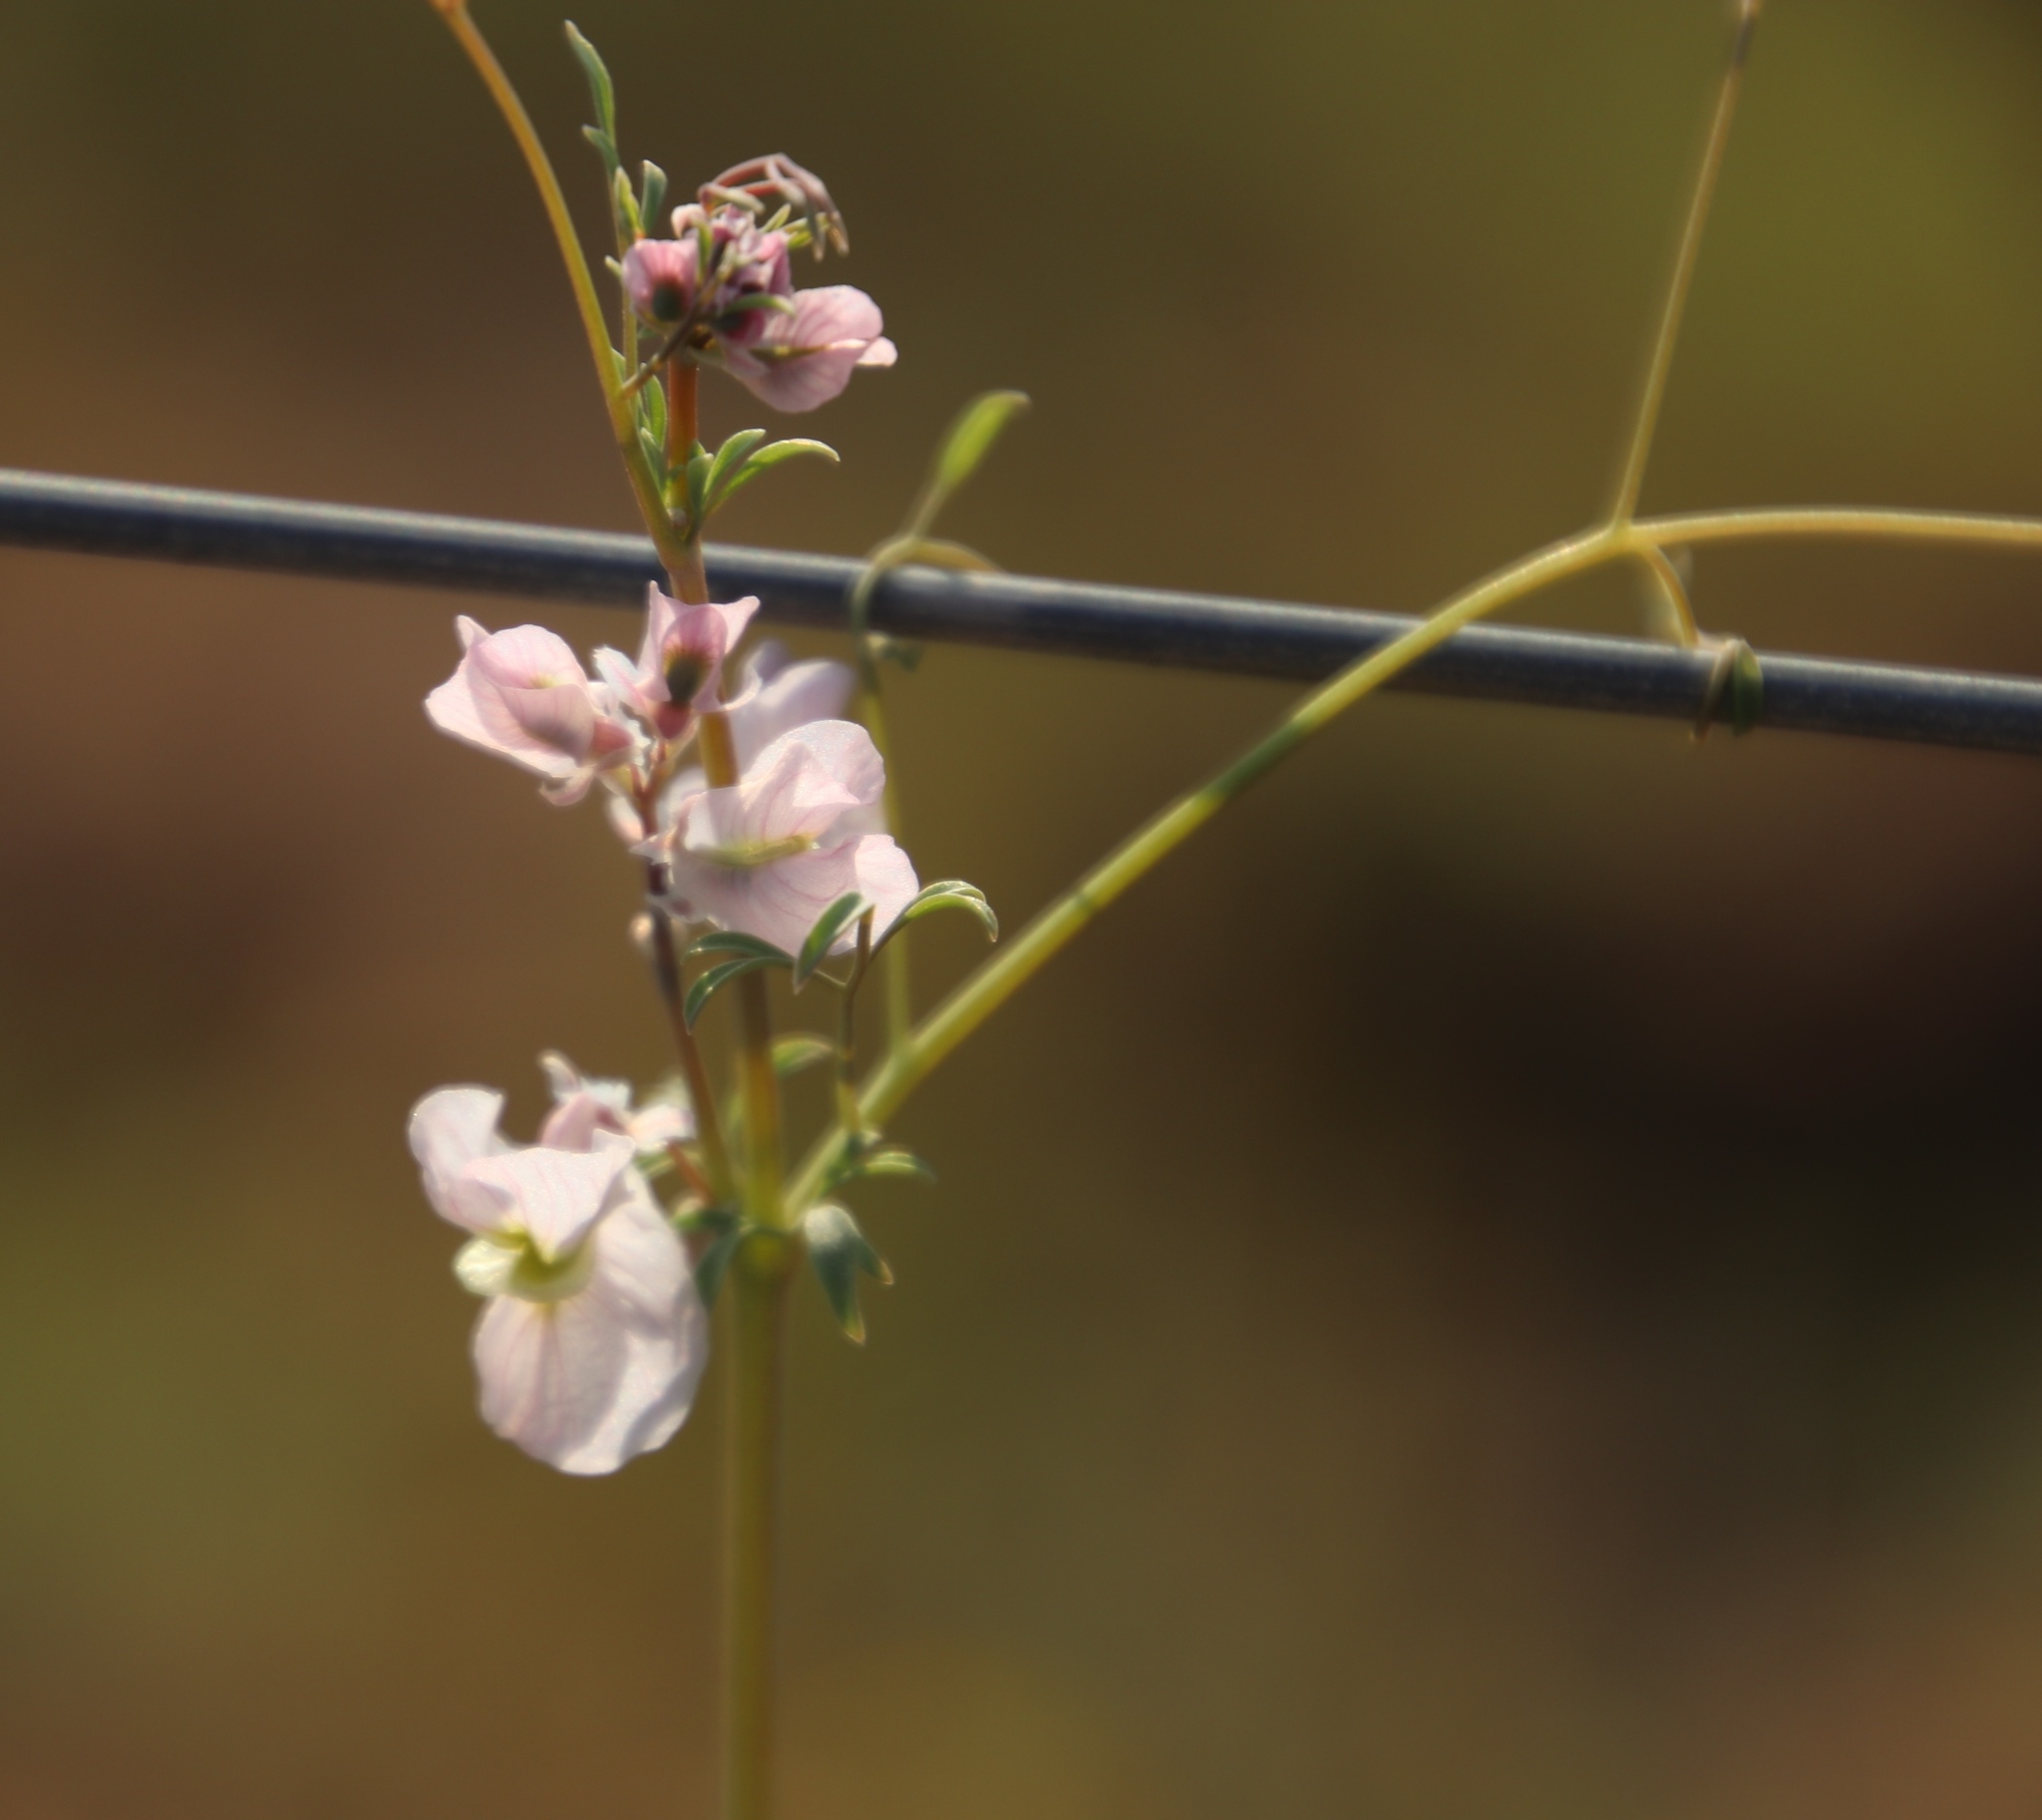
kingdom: Plantae
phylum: Tracheophyta
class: Magnoliopsida
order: Ranunculales
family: Papaveraceae
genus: Cysticapnos
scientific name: Cysticapnos vesicaria
